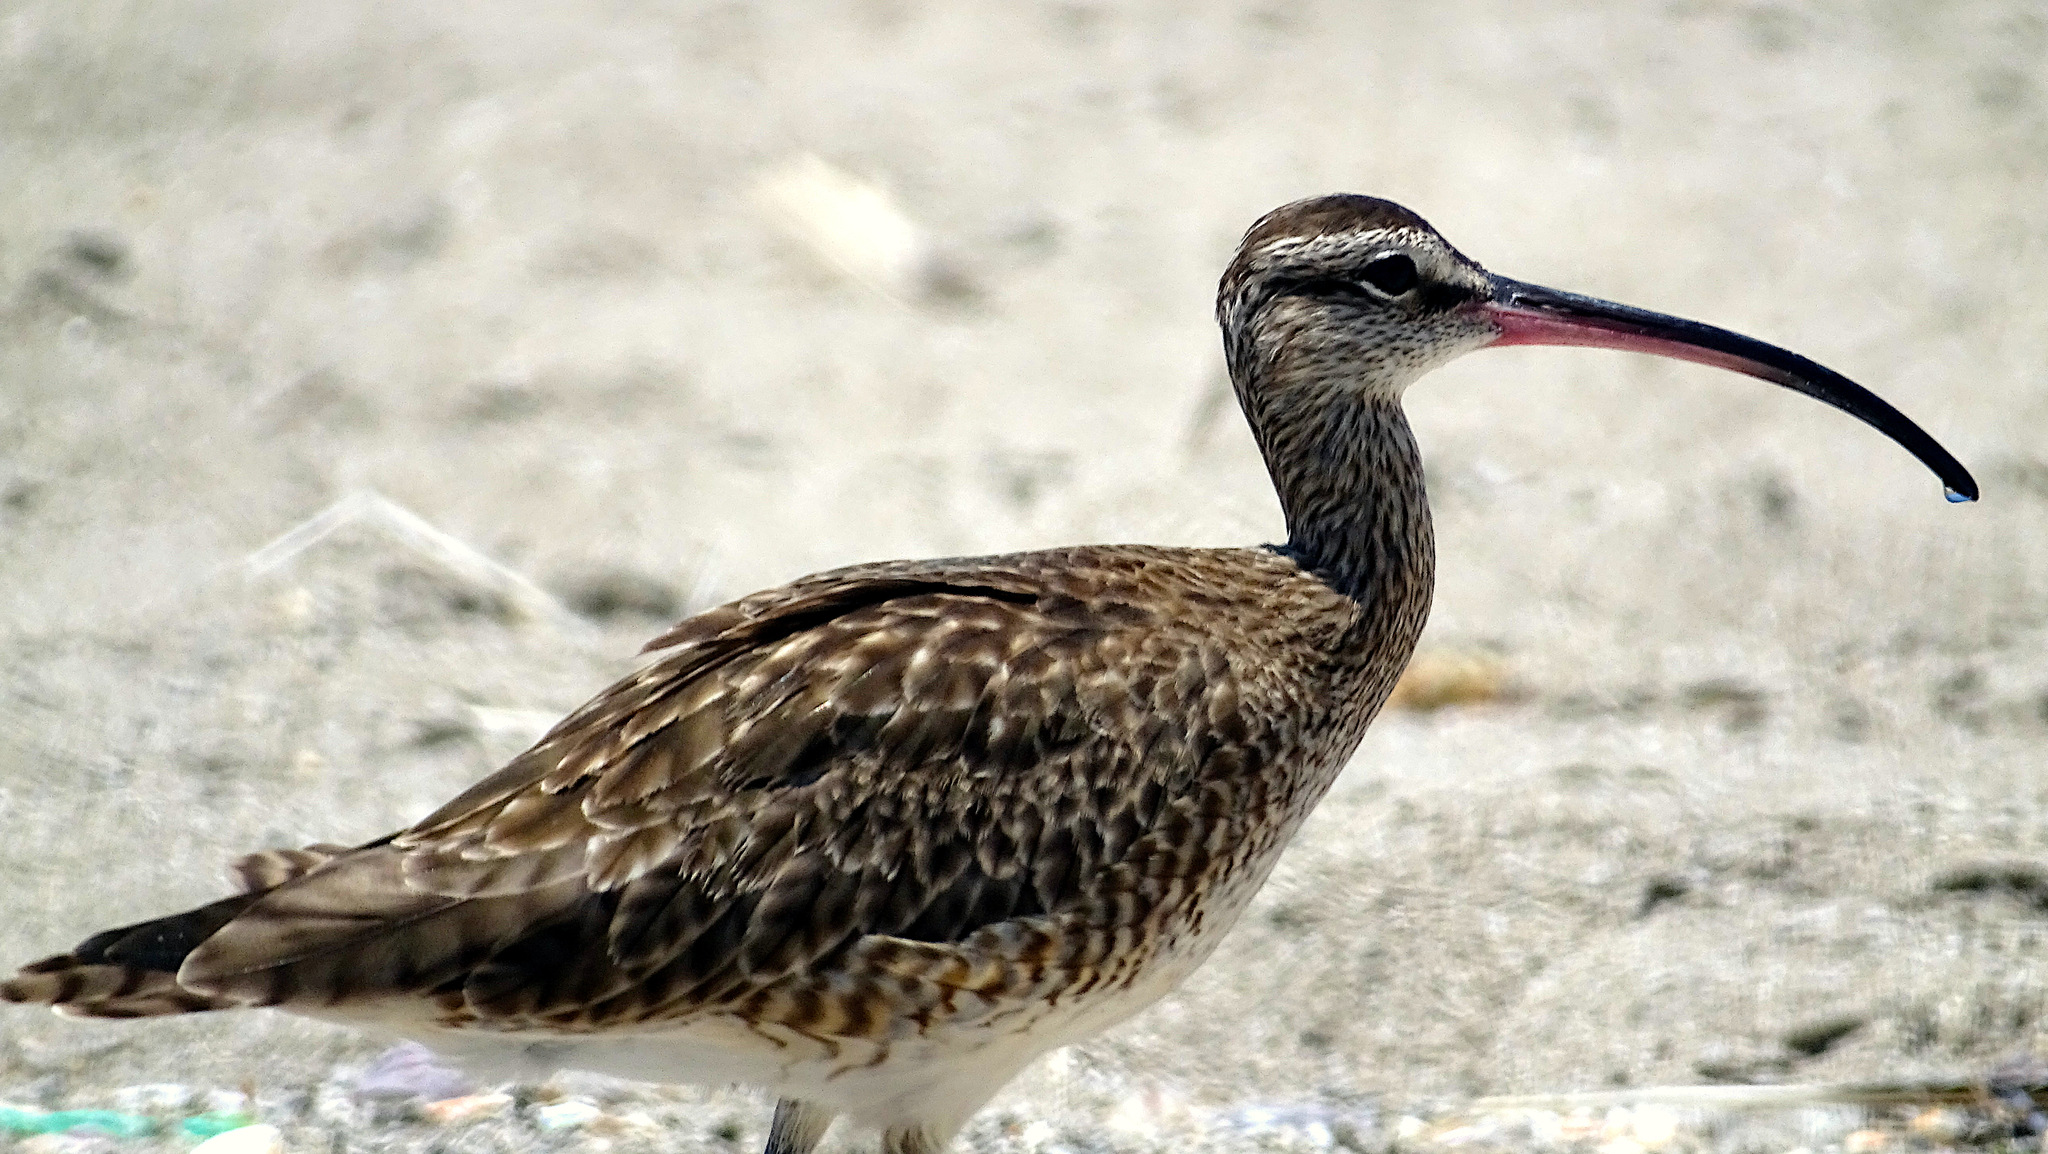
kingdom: Animalia
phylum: Chordata
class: Aves
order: Charadriiformes
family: Scolopacidae
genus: Numenius
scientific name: Numenius hudsonicus
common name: Hudsonian whimbrel
